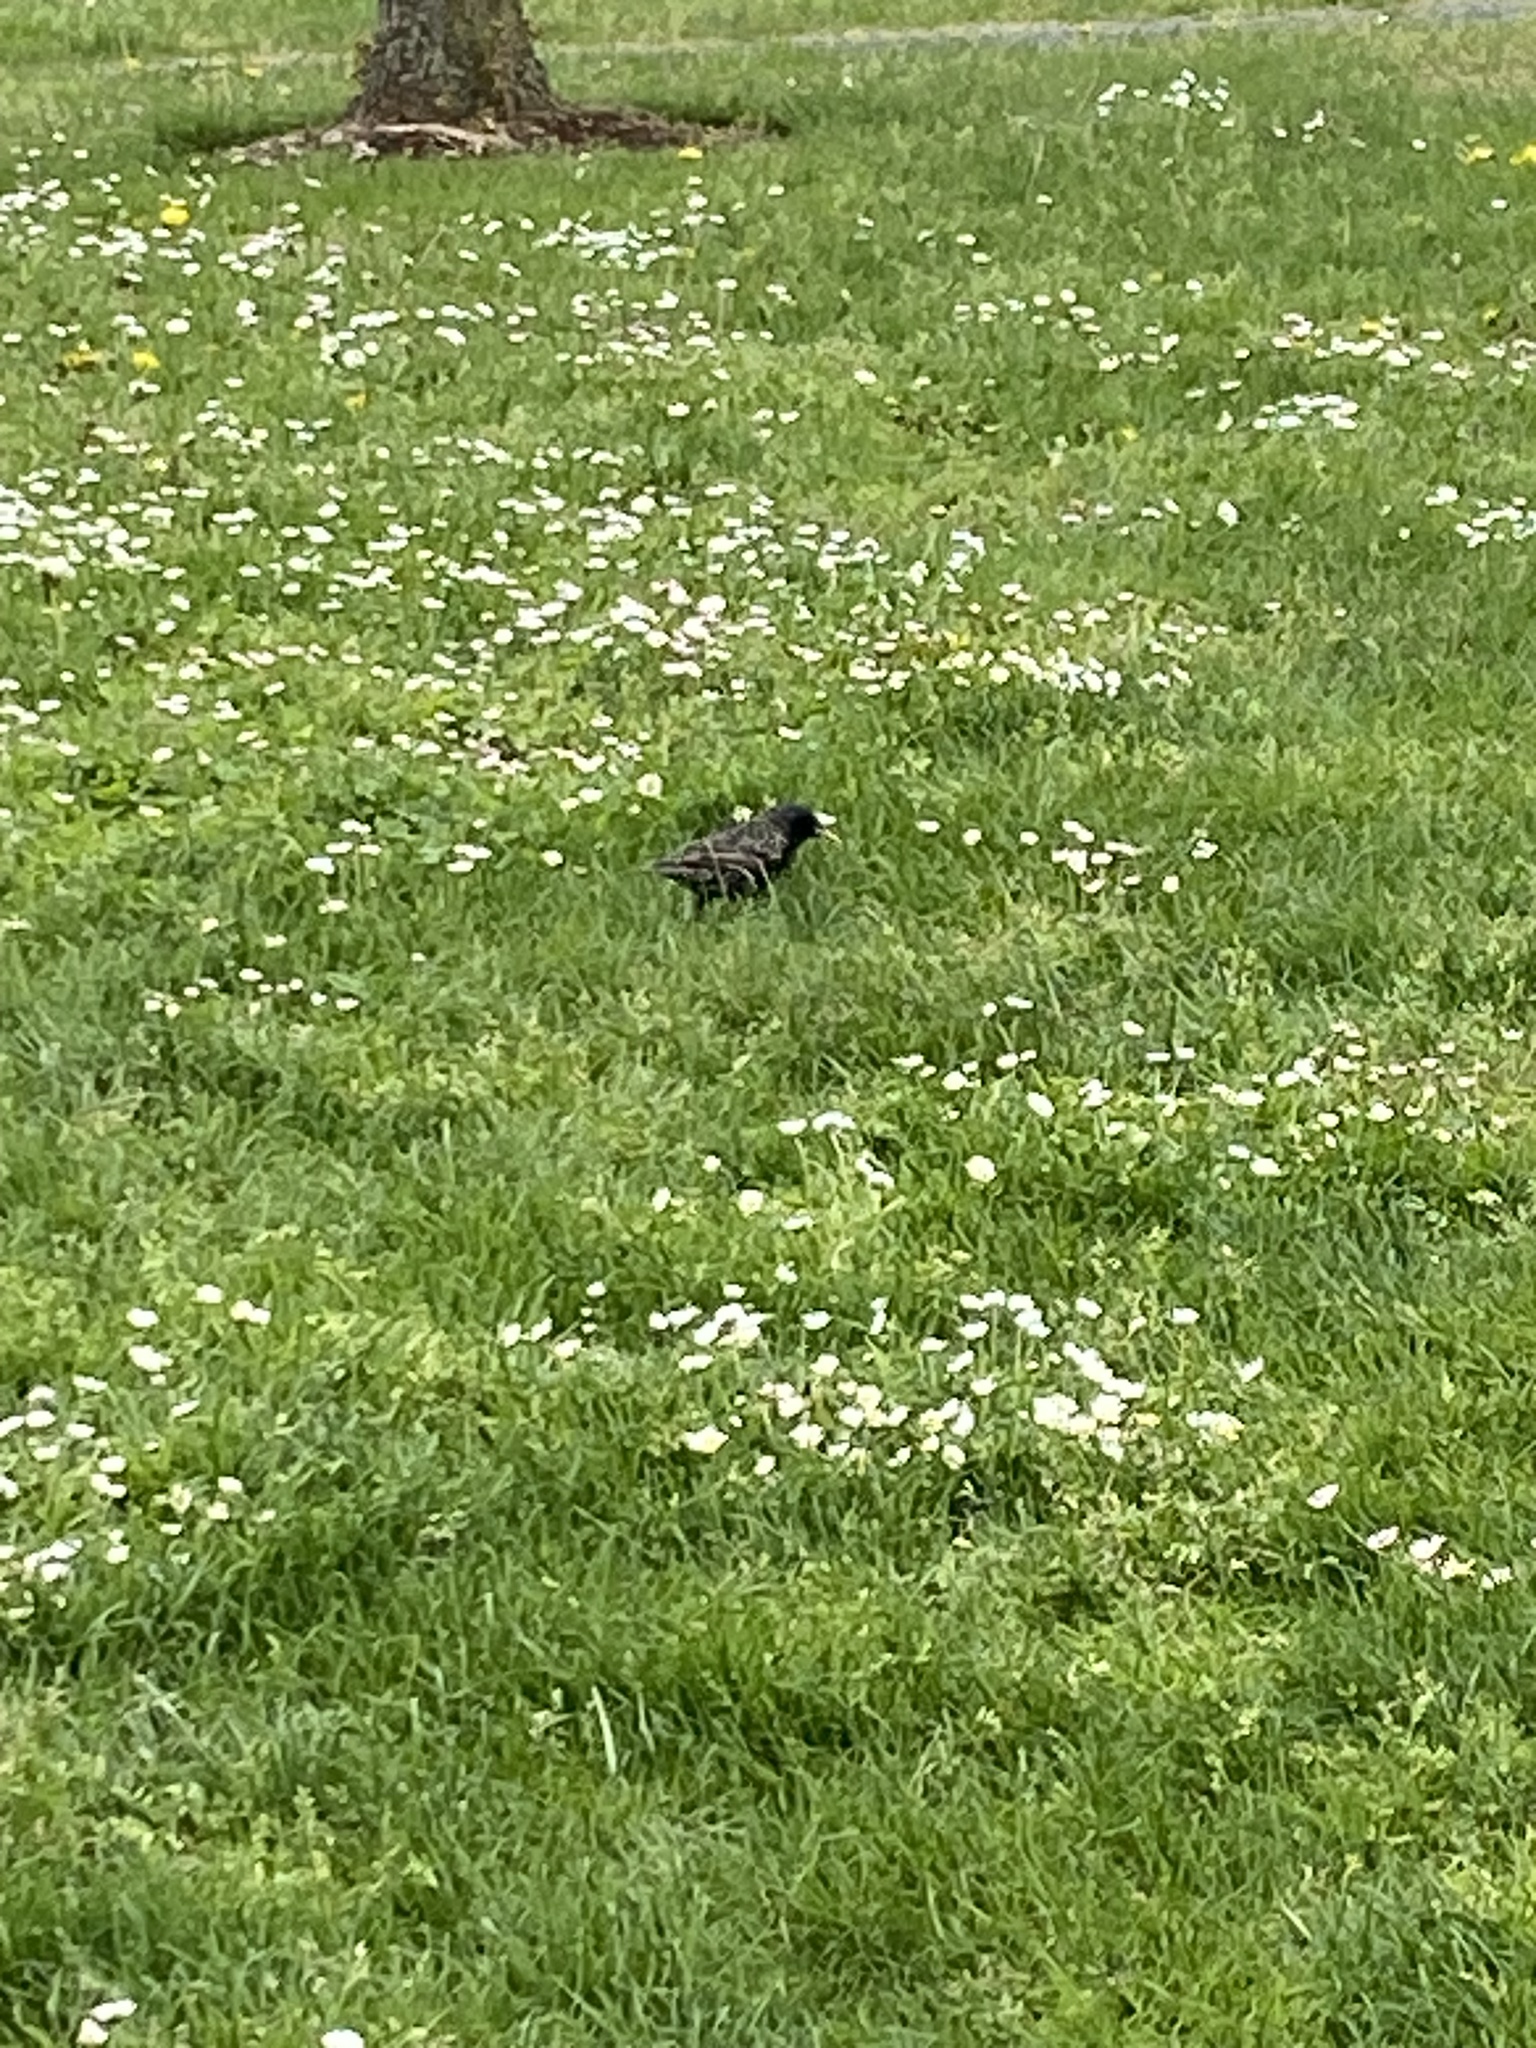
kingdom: Animalia
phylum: Chordata
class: Aves
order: Passeriformes
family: Sturnidae
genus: Sturnus
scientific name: Sturnus vulgaris
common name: Common starling
